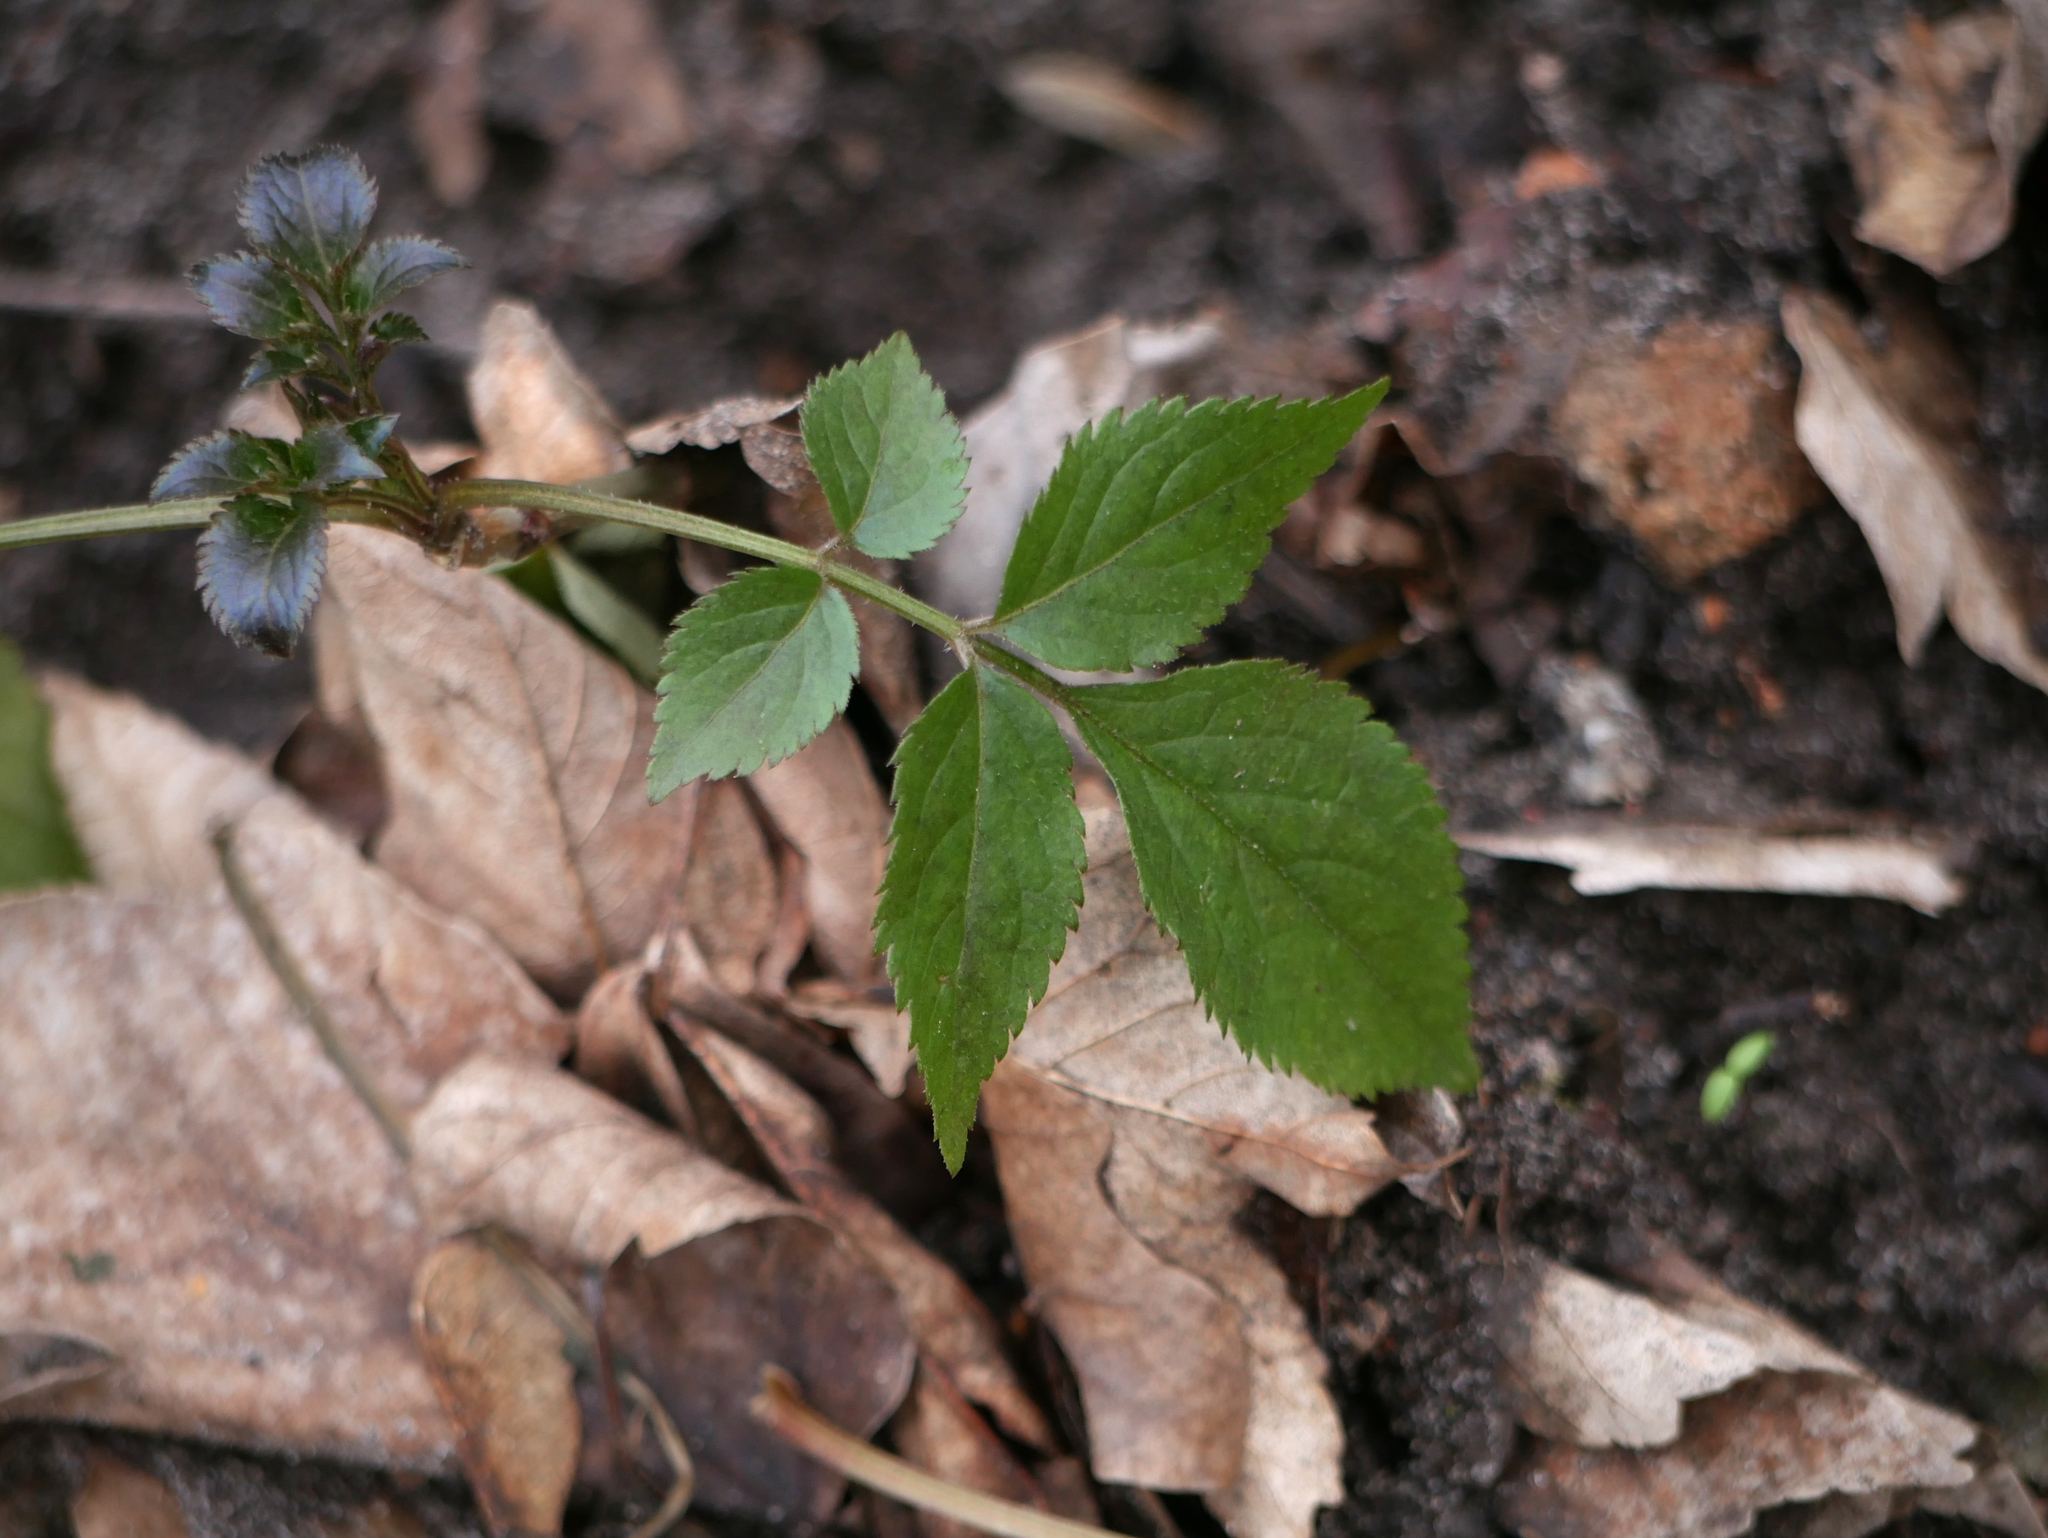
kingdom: Plantae
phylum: Tracheophyta
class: Magnoliopsida
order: Dipsacales
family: Viburnaceae
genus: Sambucus
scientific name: Sambucus nigra
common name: Elder
